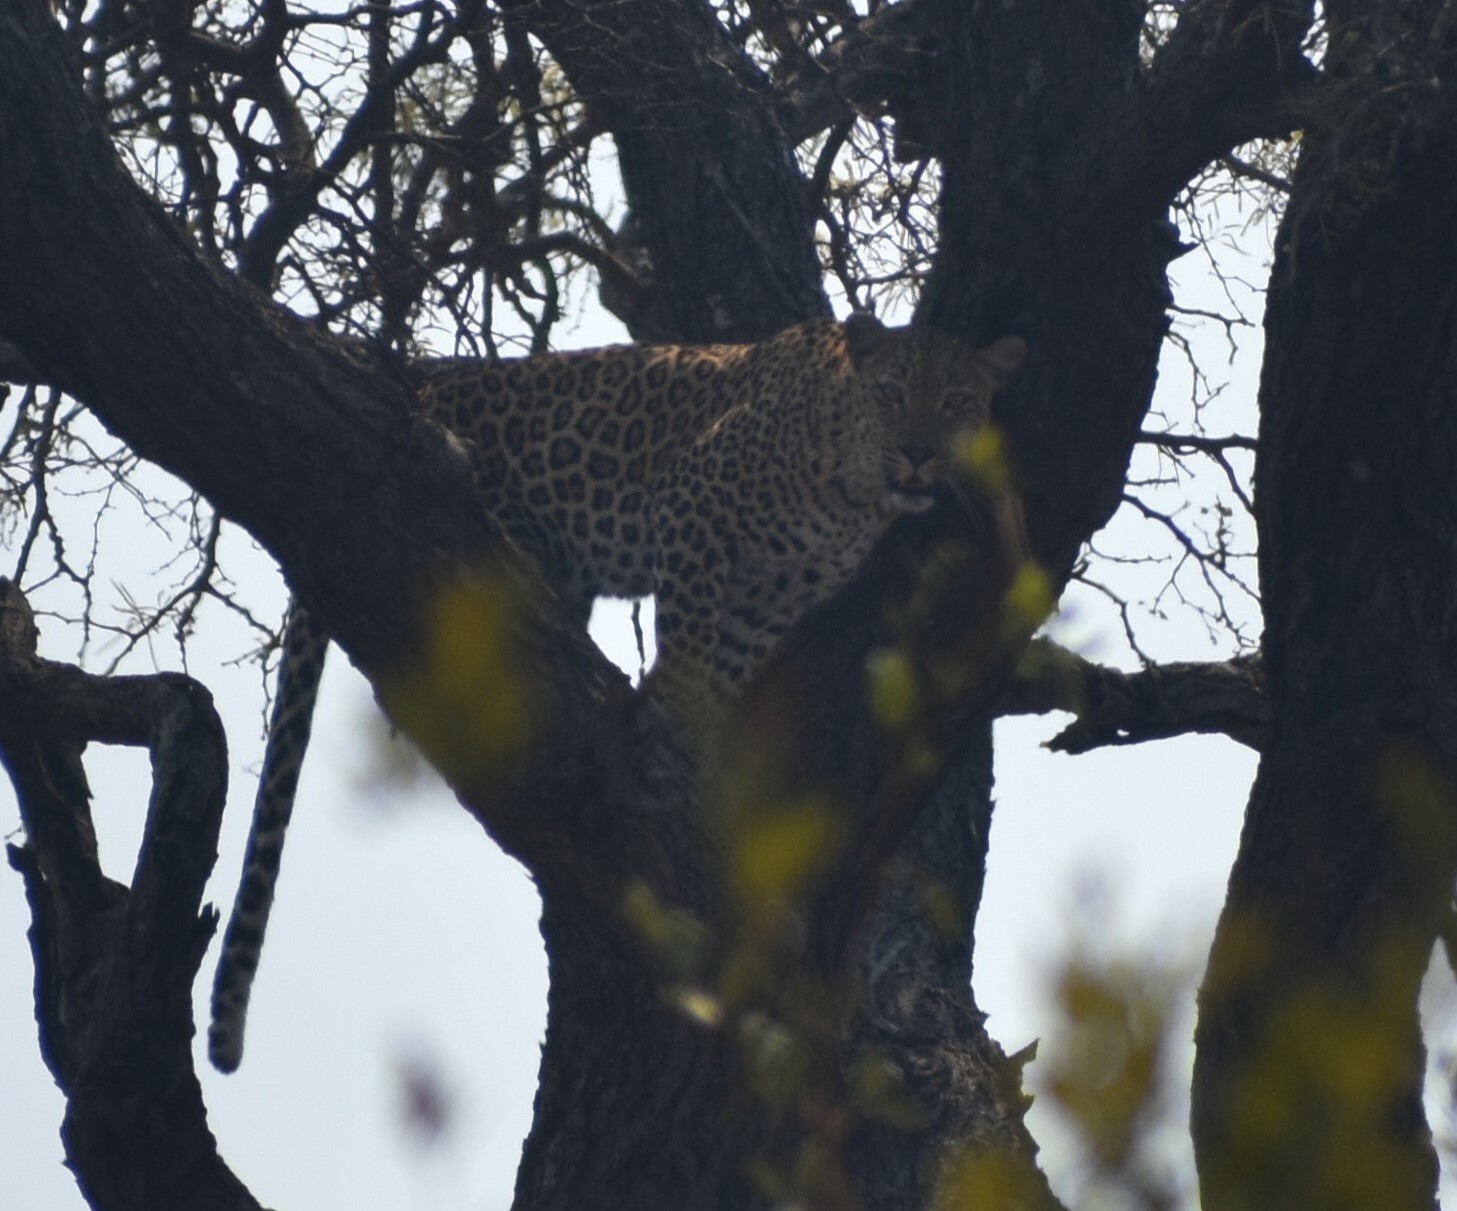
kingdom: Animalia
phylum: Chordata
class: Mammalia
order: Carnivora
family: Felidae
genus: Panthera
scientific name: Panthera pardus
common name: Leopard
